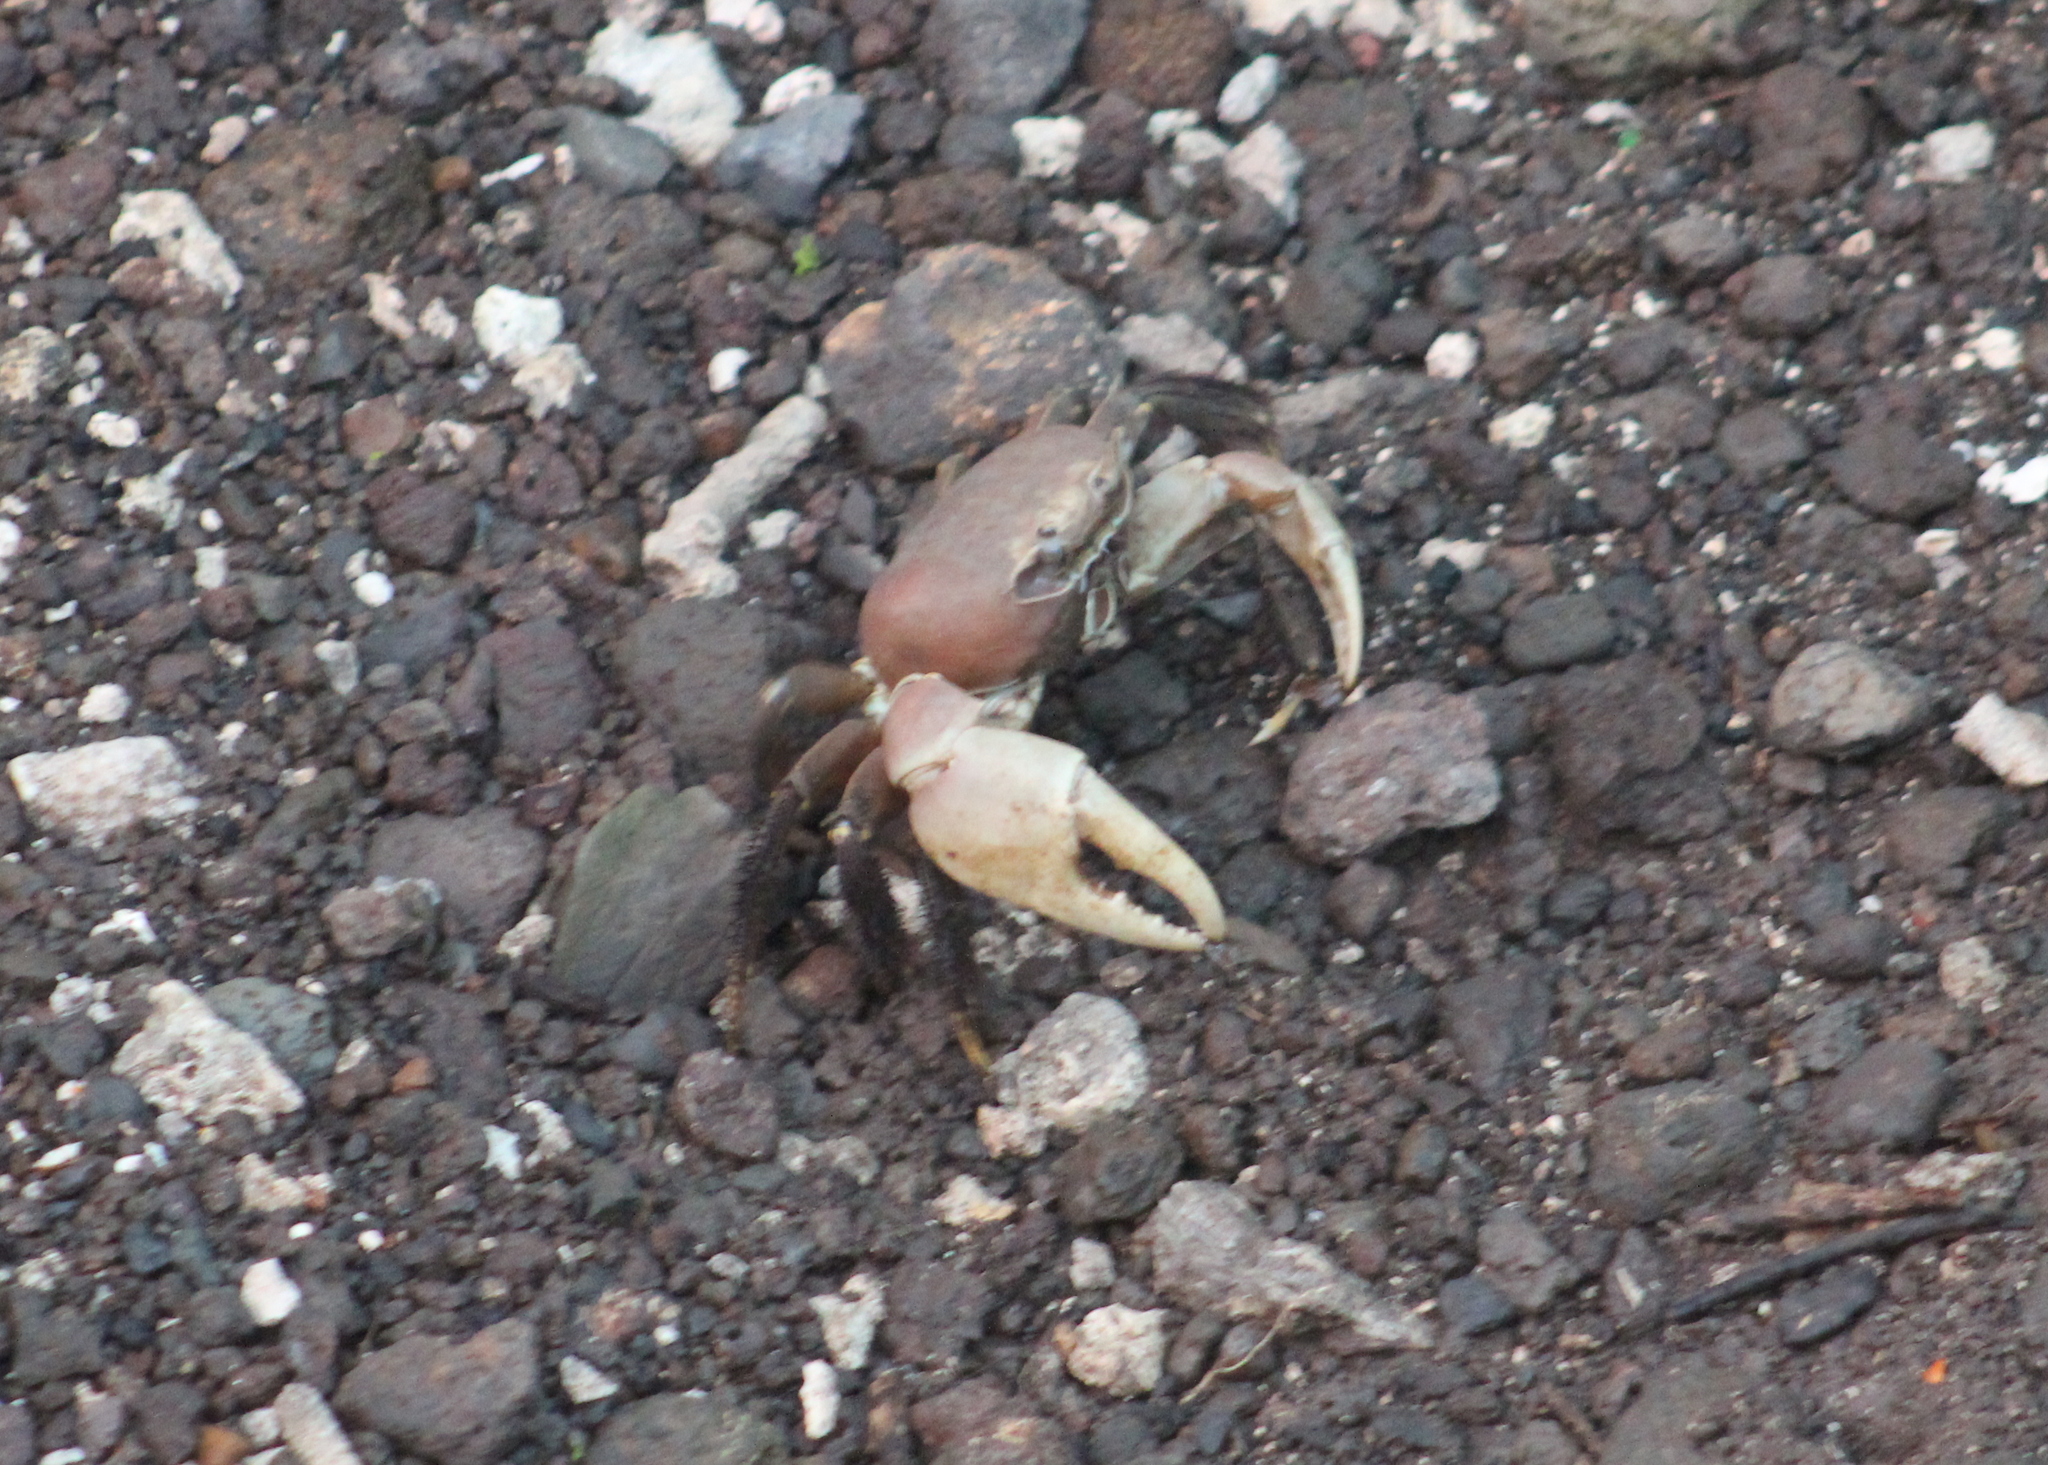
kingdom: Animalia
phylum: Arthropoda
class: Malacostraca
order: Decapoda
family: Gecarcinidae
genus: Cardisoma
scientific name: Cardisoma carnifex
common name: Brown land crab
